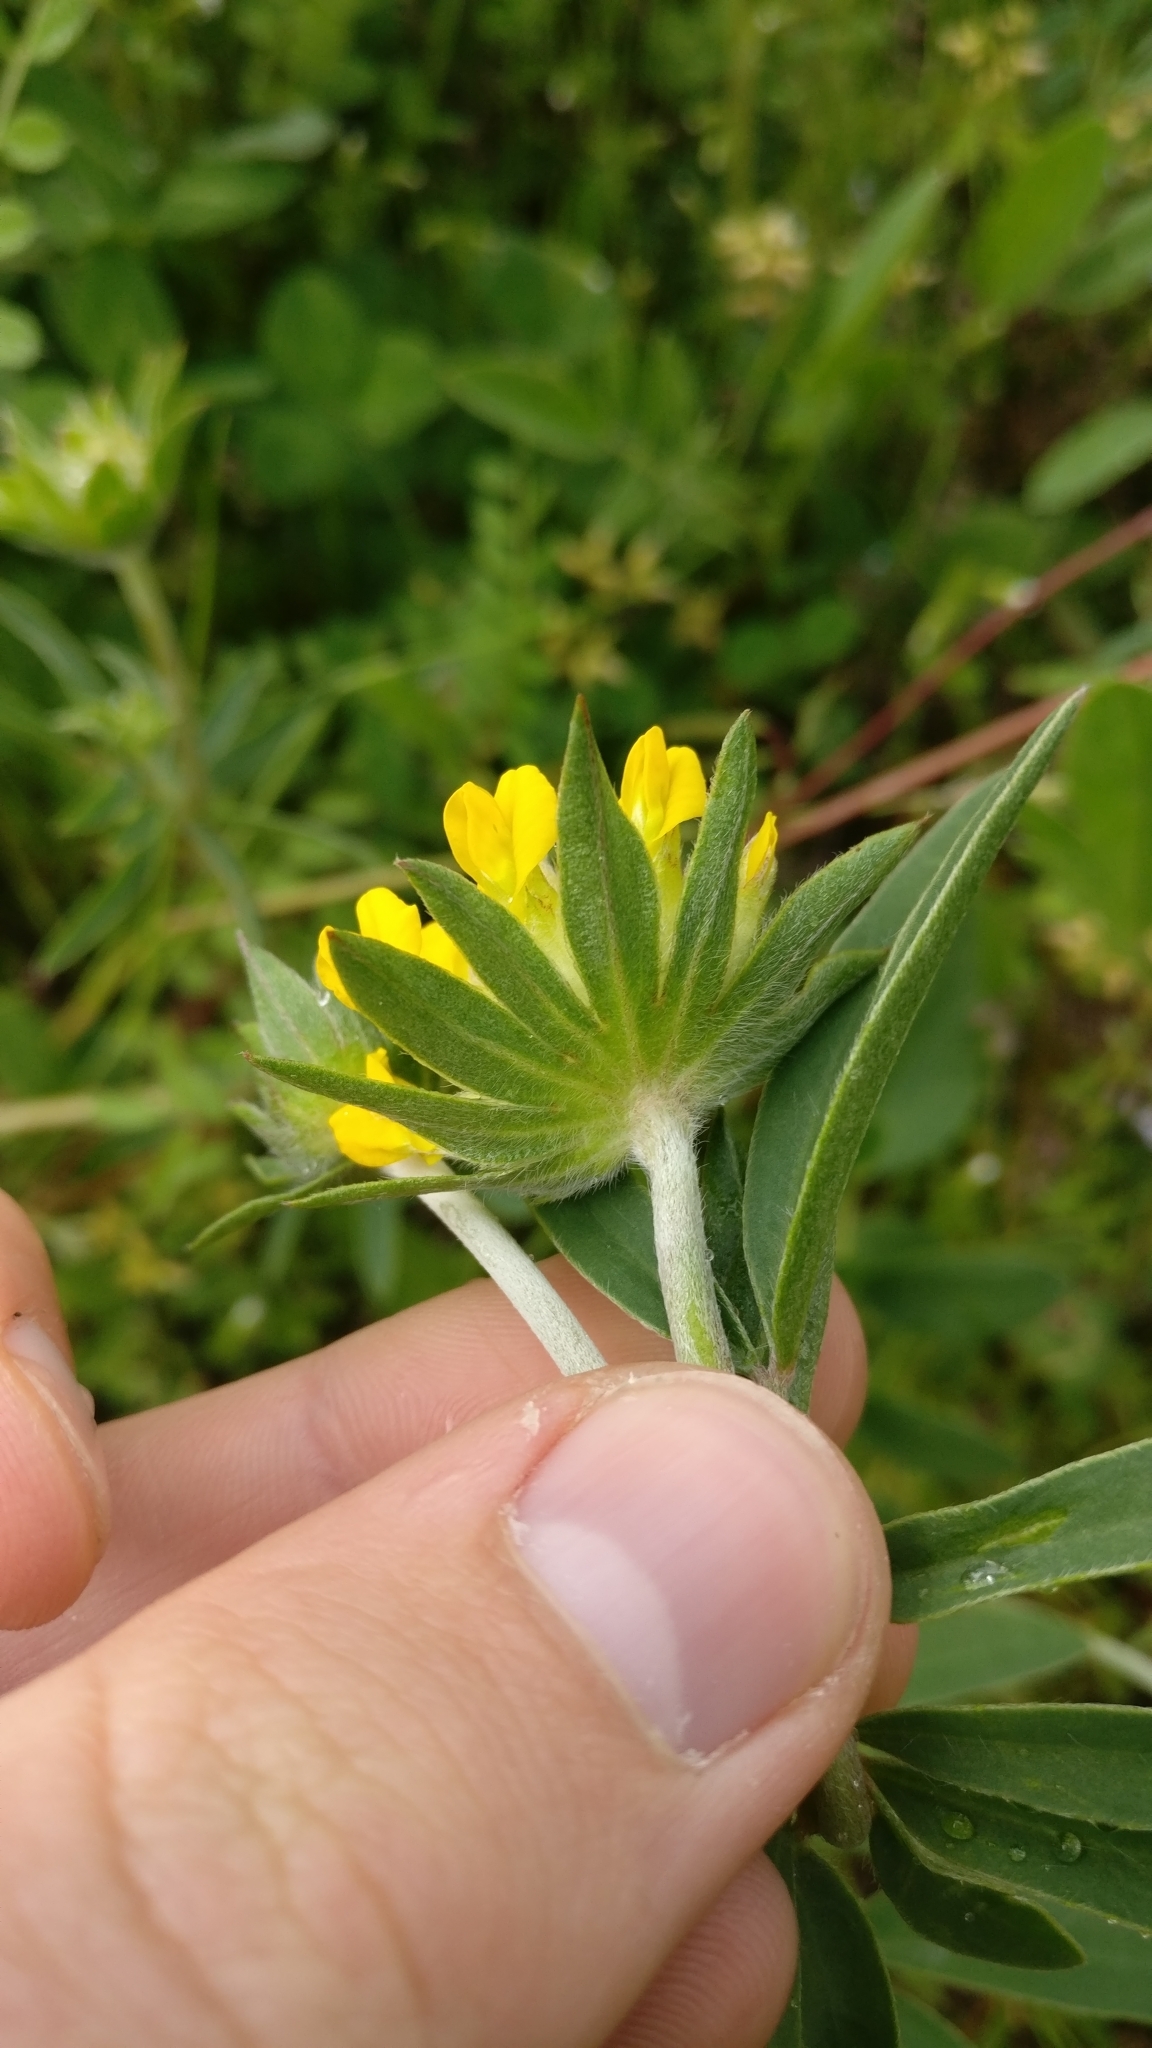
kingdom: Plantae
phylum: Tracheophyta
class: Magnoliopsida
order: Fabales
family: Fabaceae
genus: Anthyllis
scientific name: Anthyllis vulneraria
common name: Kidney vetch
